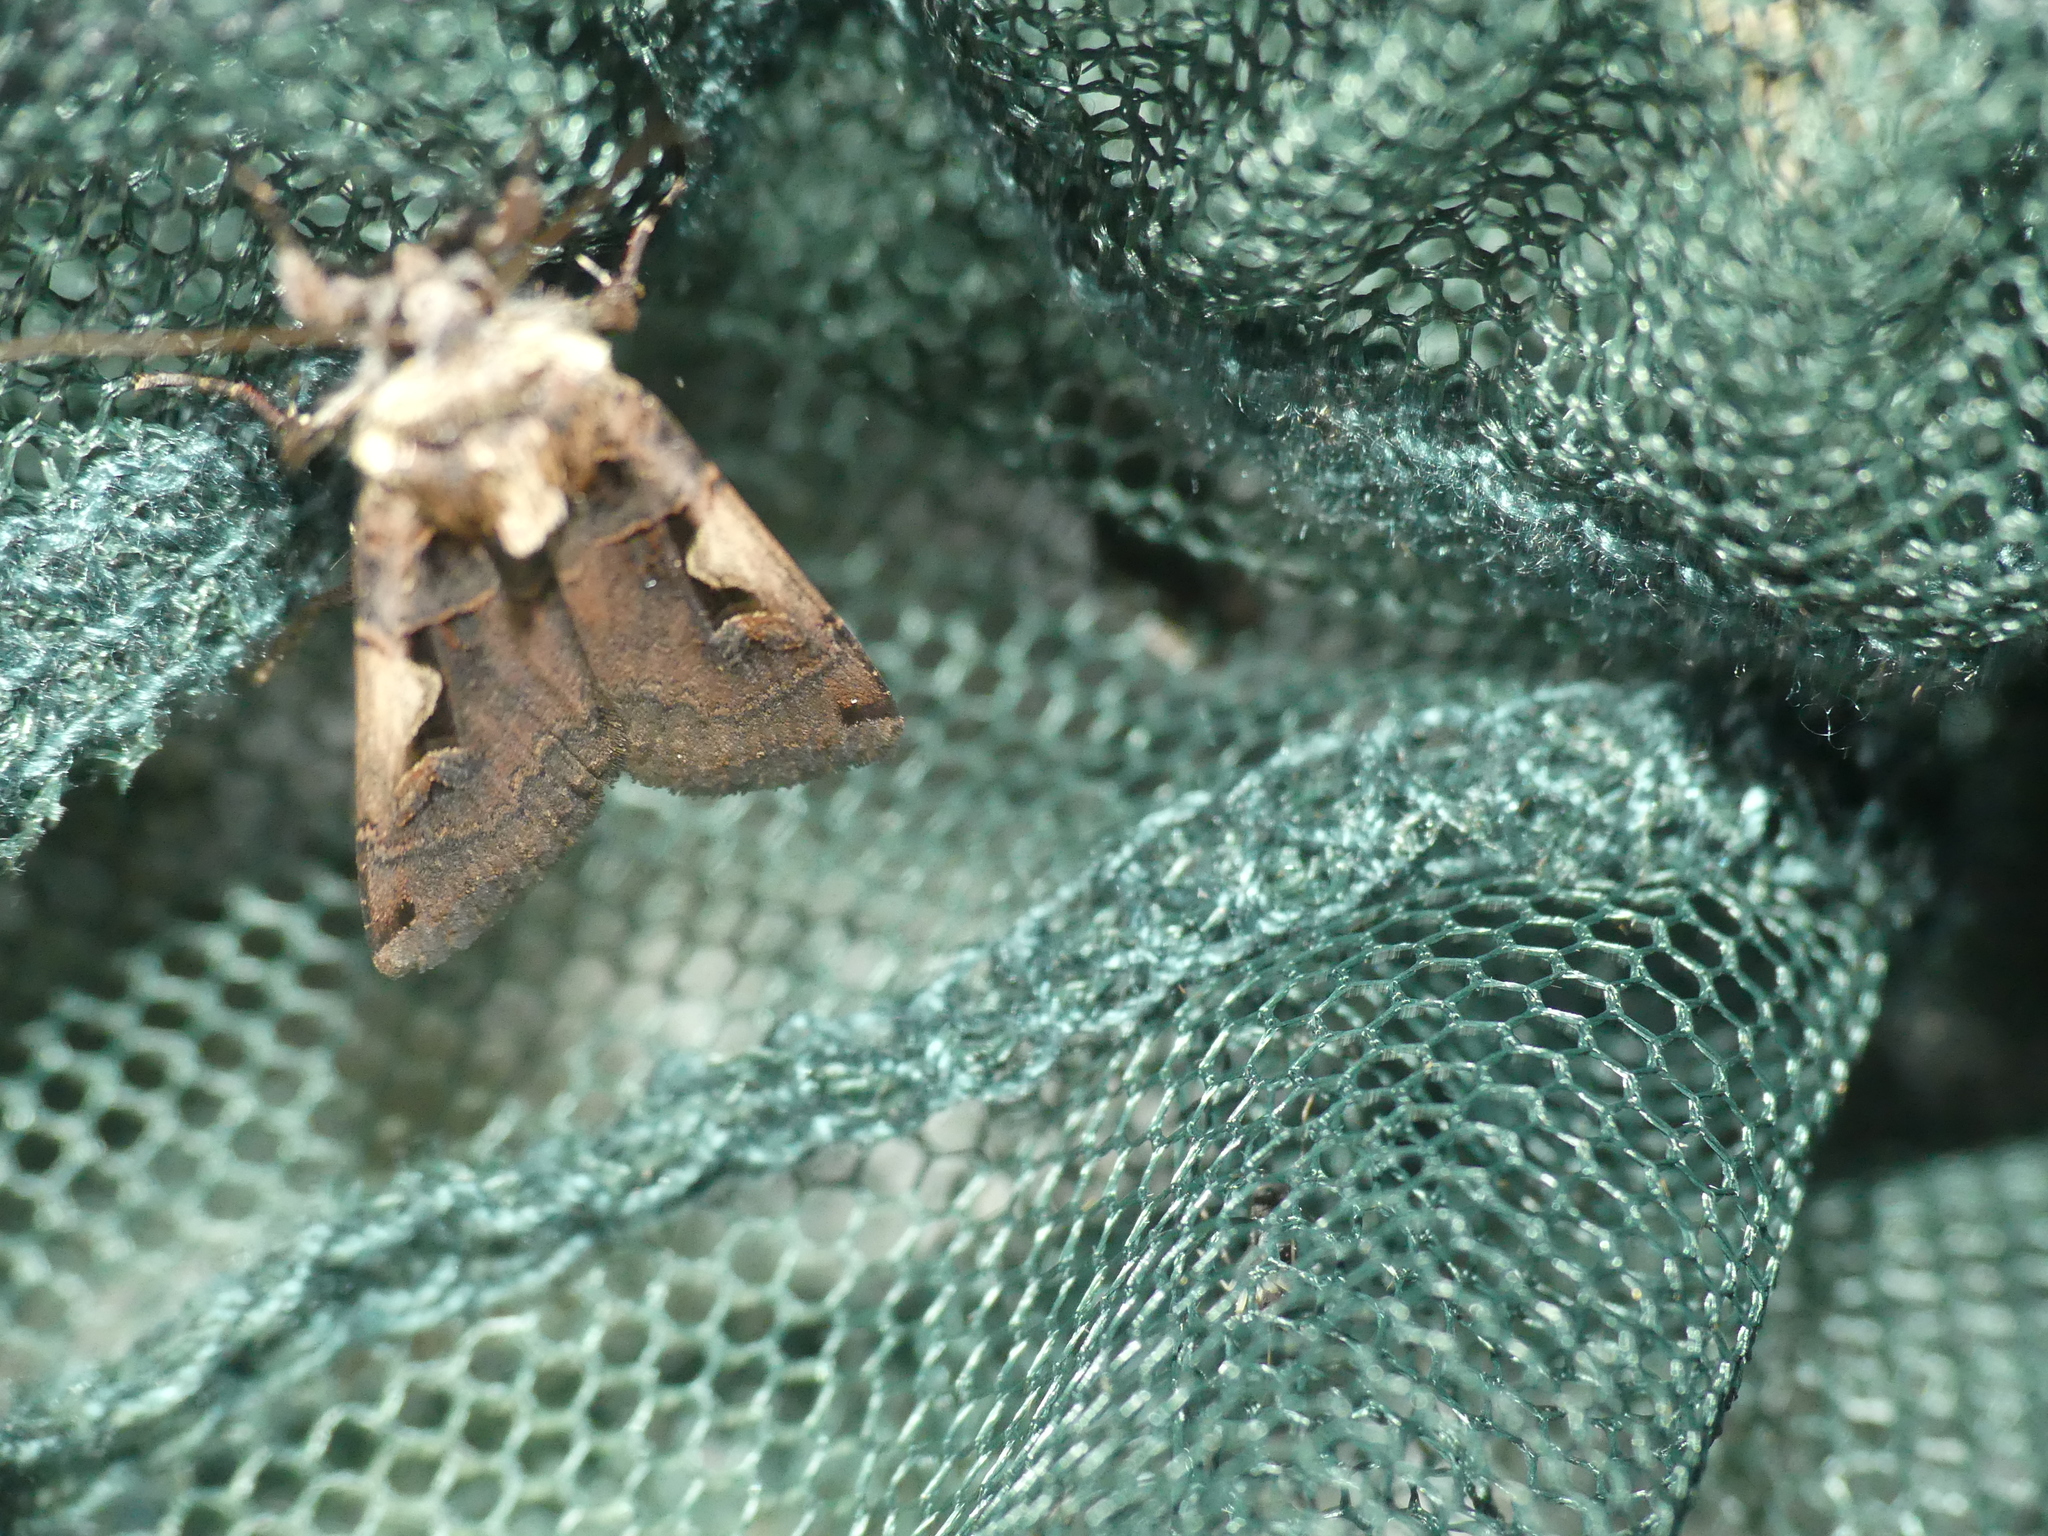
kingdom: Animalia
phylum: Arthropoda
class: Insecta
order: Lepidoptera
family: Noctuidae
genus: Xestia
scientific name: Xestia c-nigrum
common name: Setaceous hebrew character
